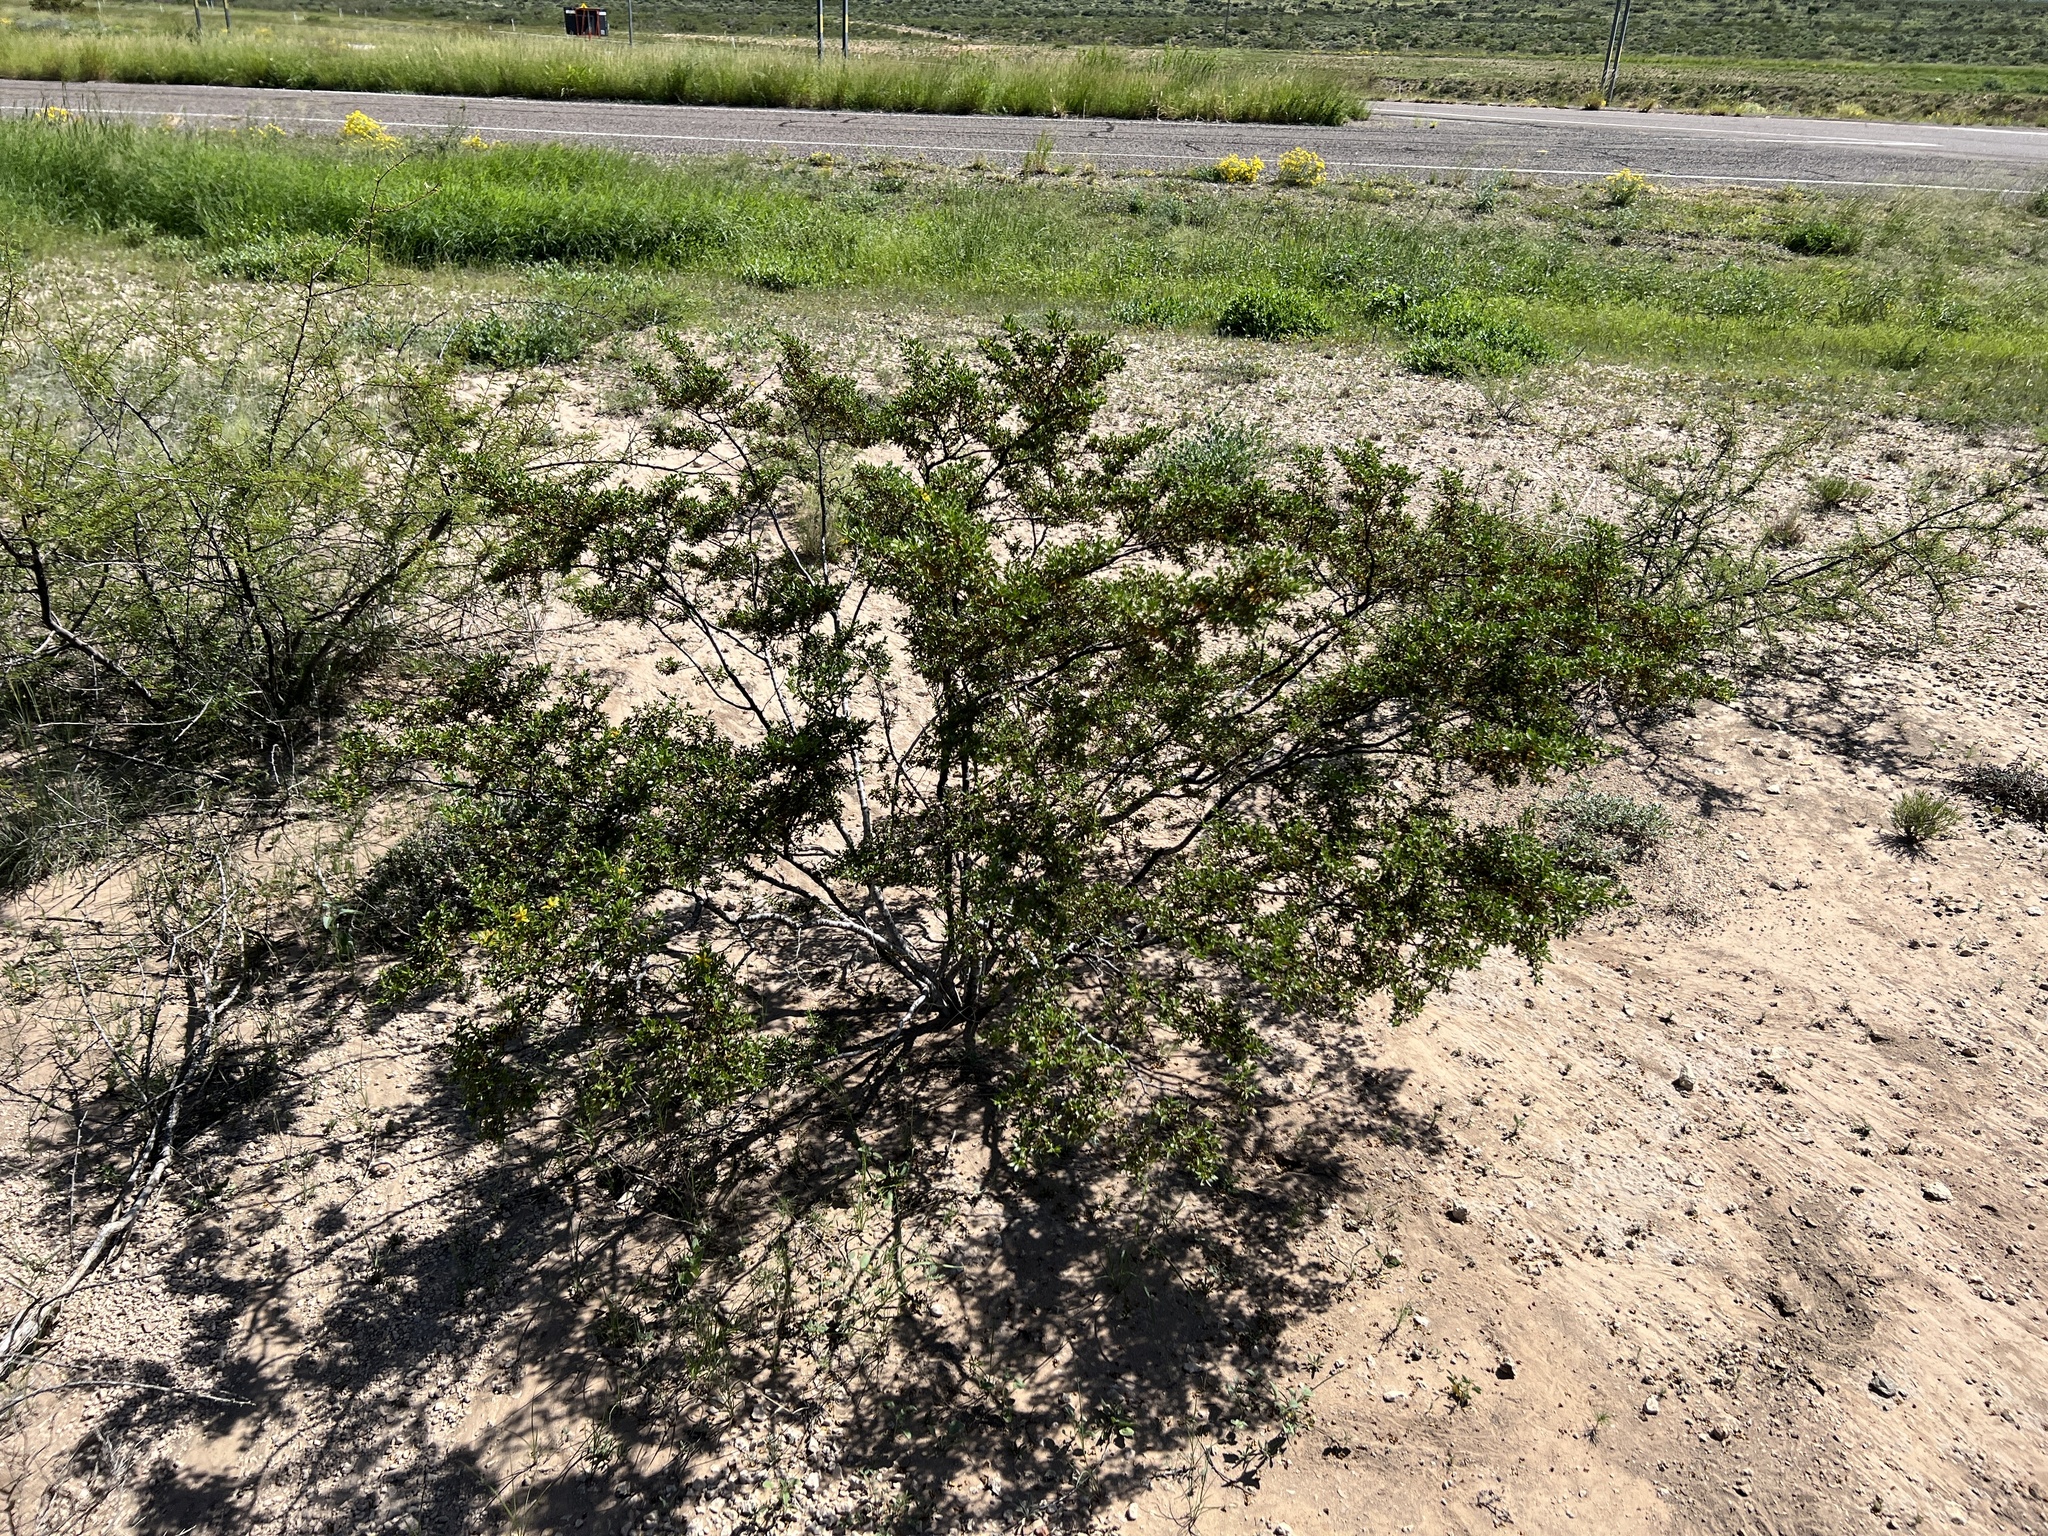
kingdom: Plantae
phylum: Tracheophyta
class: Magnoliopsida
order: Zygophyllales
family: Zygophyllaceae
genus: Larrea
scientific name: Larrea tridentata
